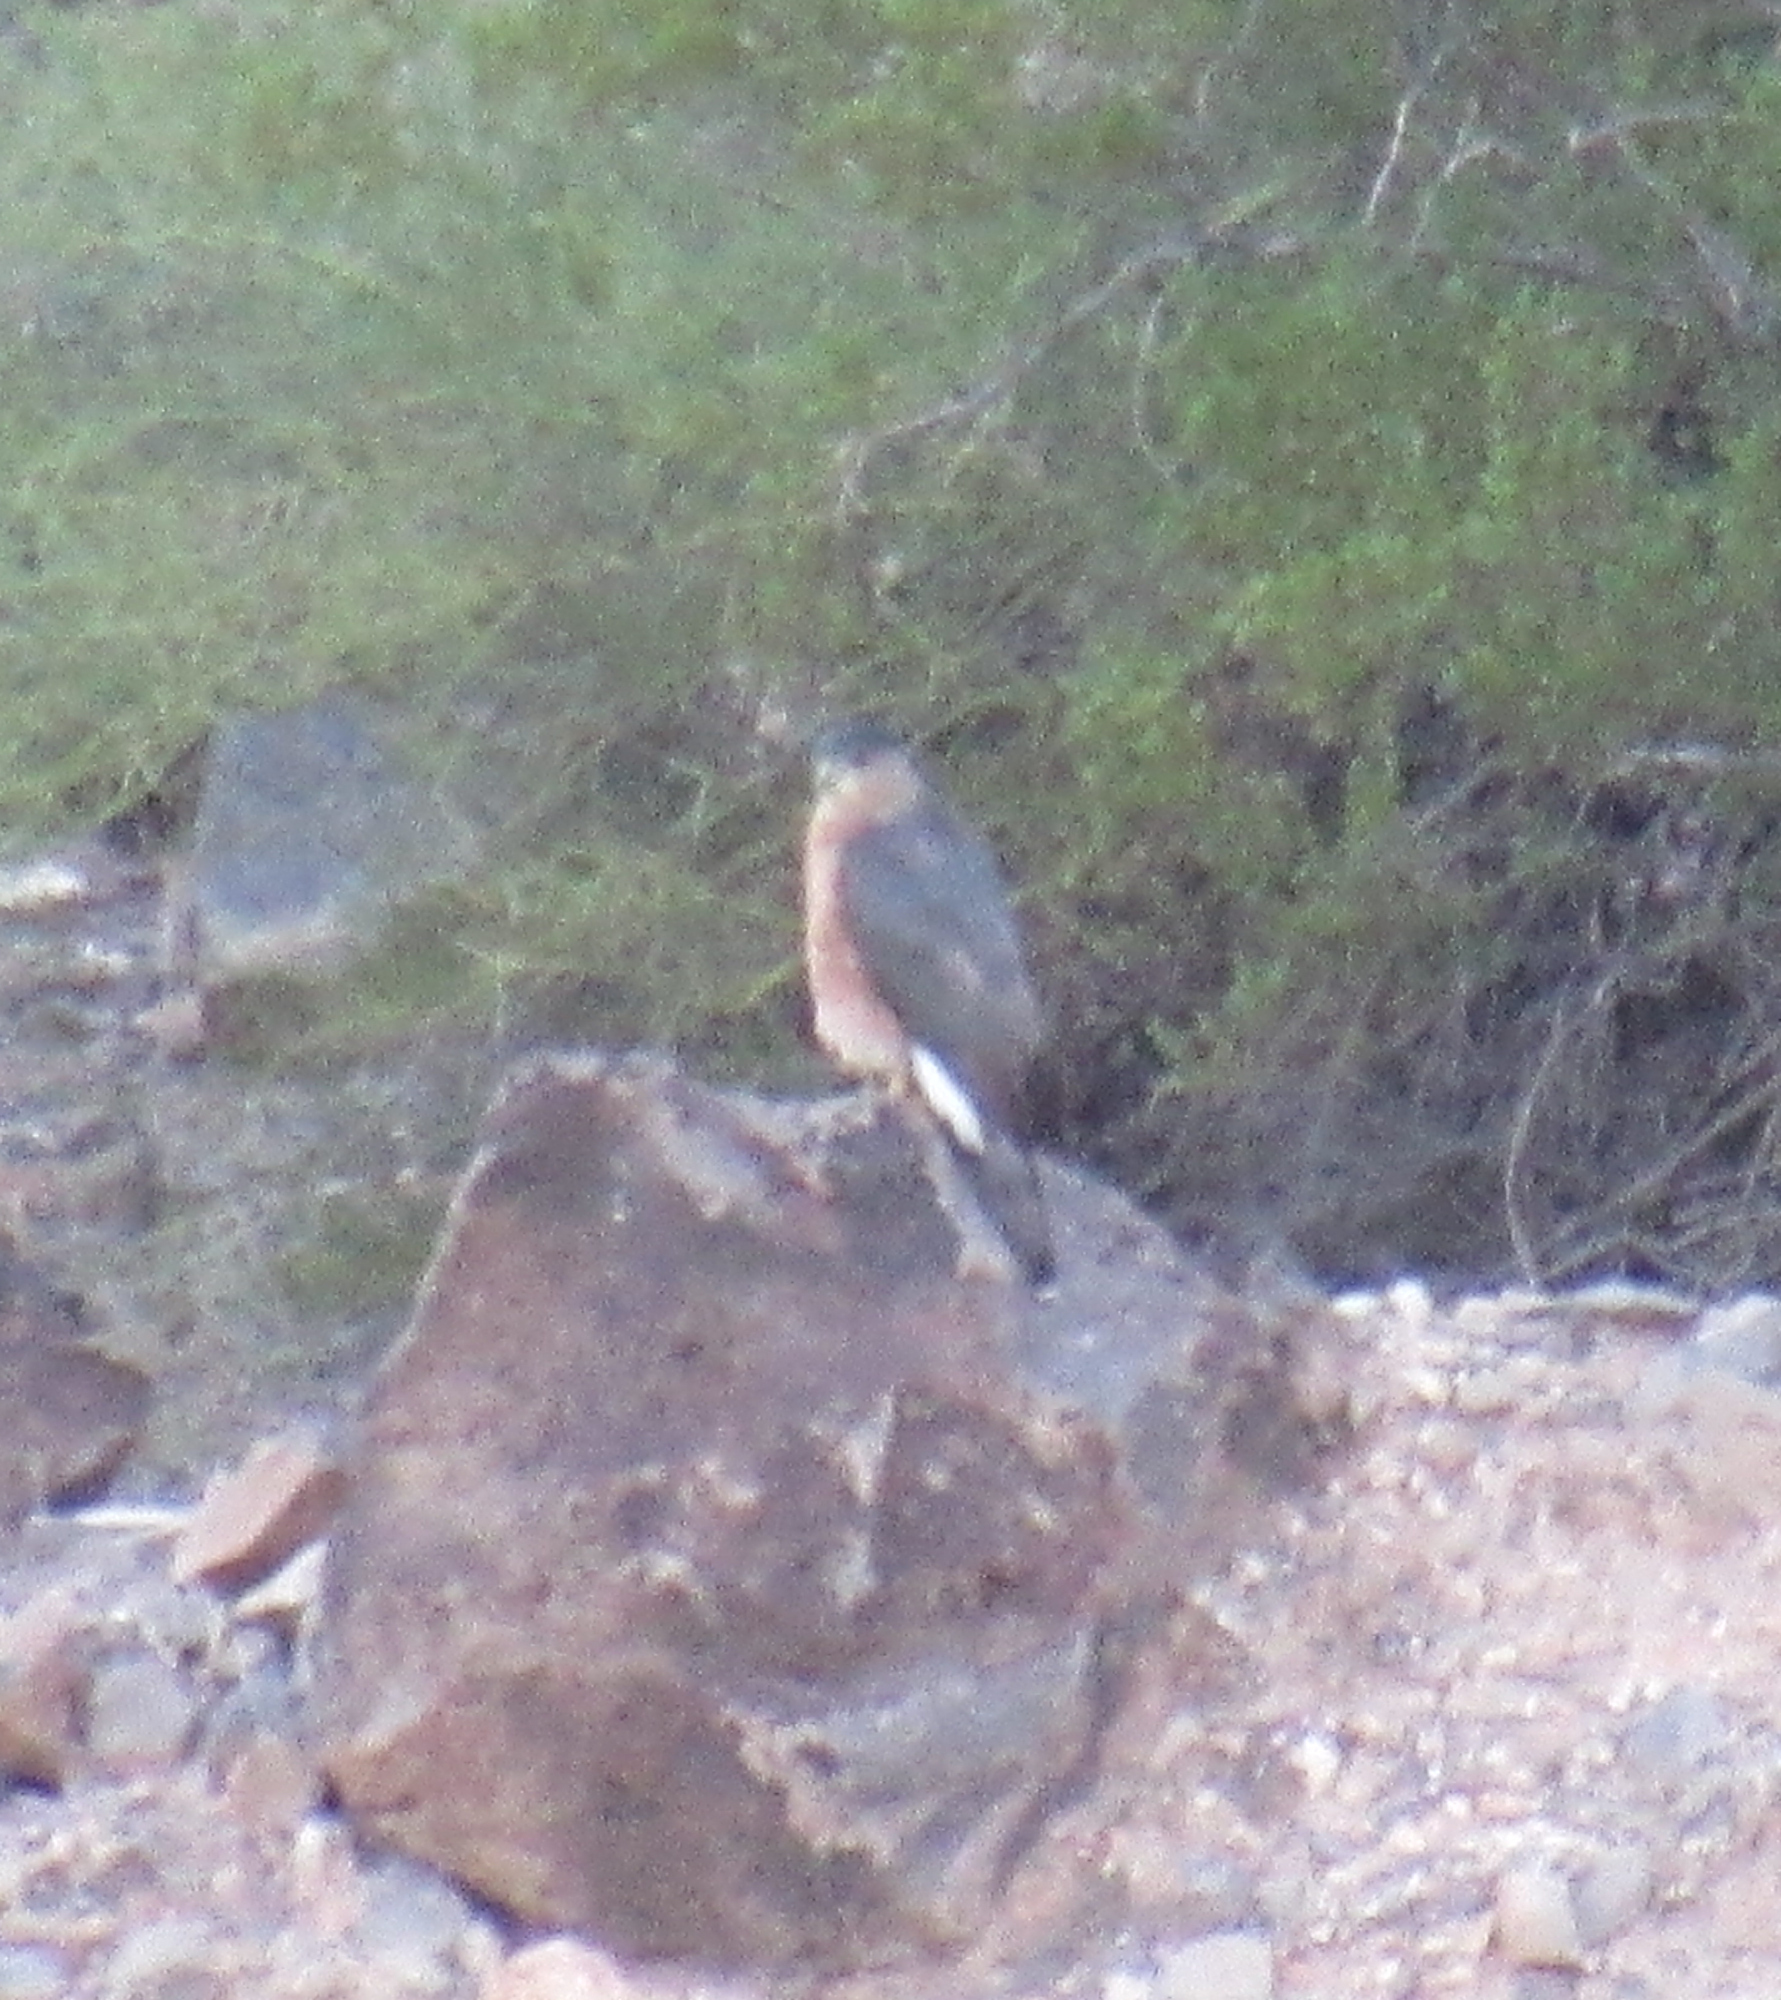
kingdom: Animalia
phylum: Chordata
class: Aves
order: Accipitriformes
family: Accipitridae
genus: Accipiter
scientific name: Accipiter cooperii
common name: Cooper's hawk
